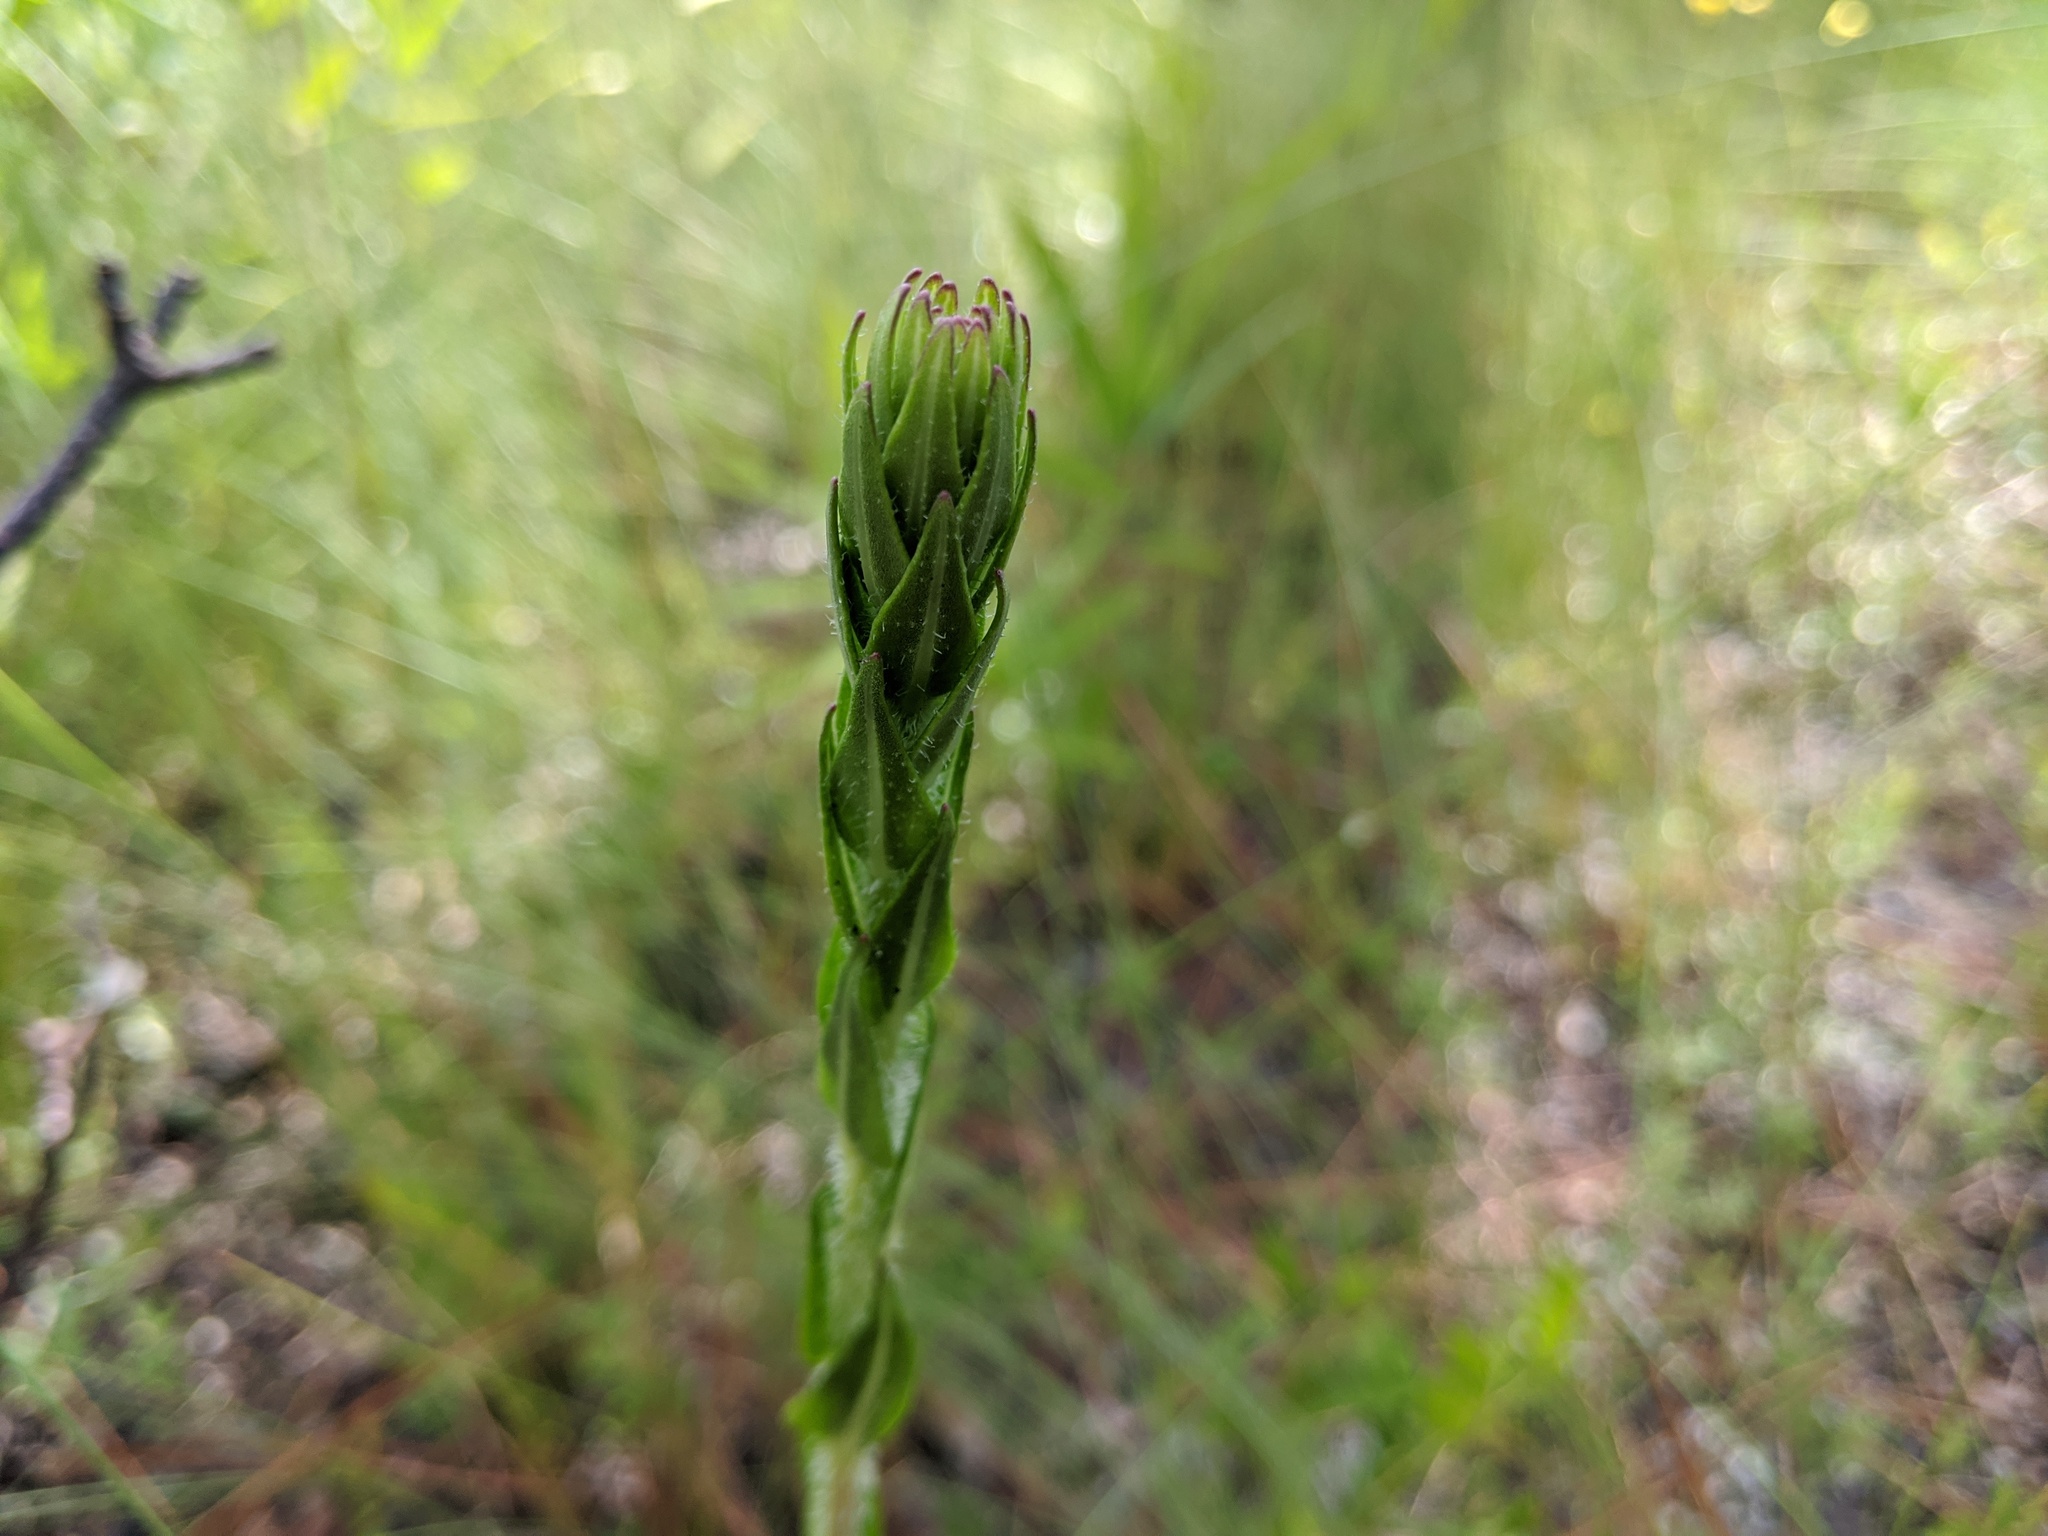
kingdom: Plantae
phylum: Tracheophyta
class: Magnoliopsida
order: Asterales
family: Asteraceae
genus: Carphephorus
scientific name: Carphephorus paniculatus
